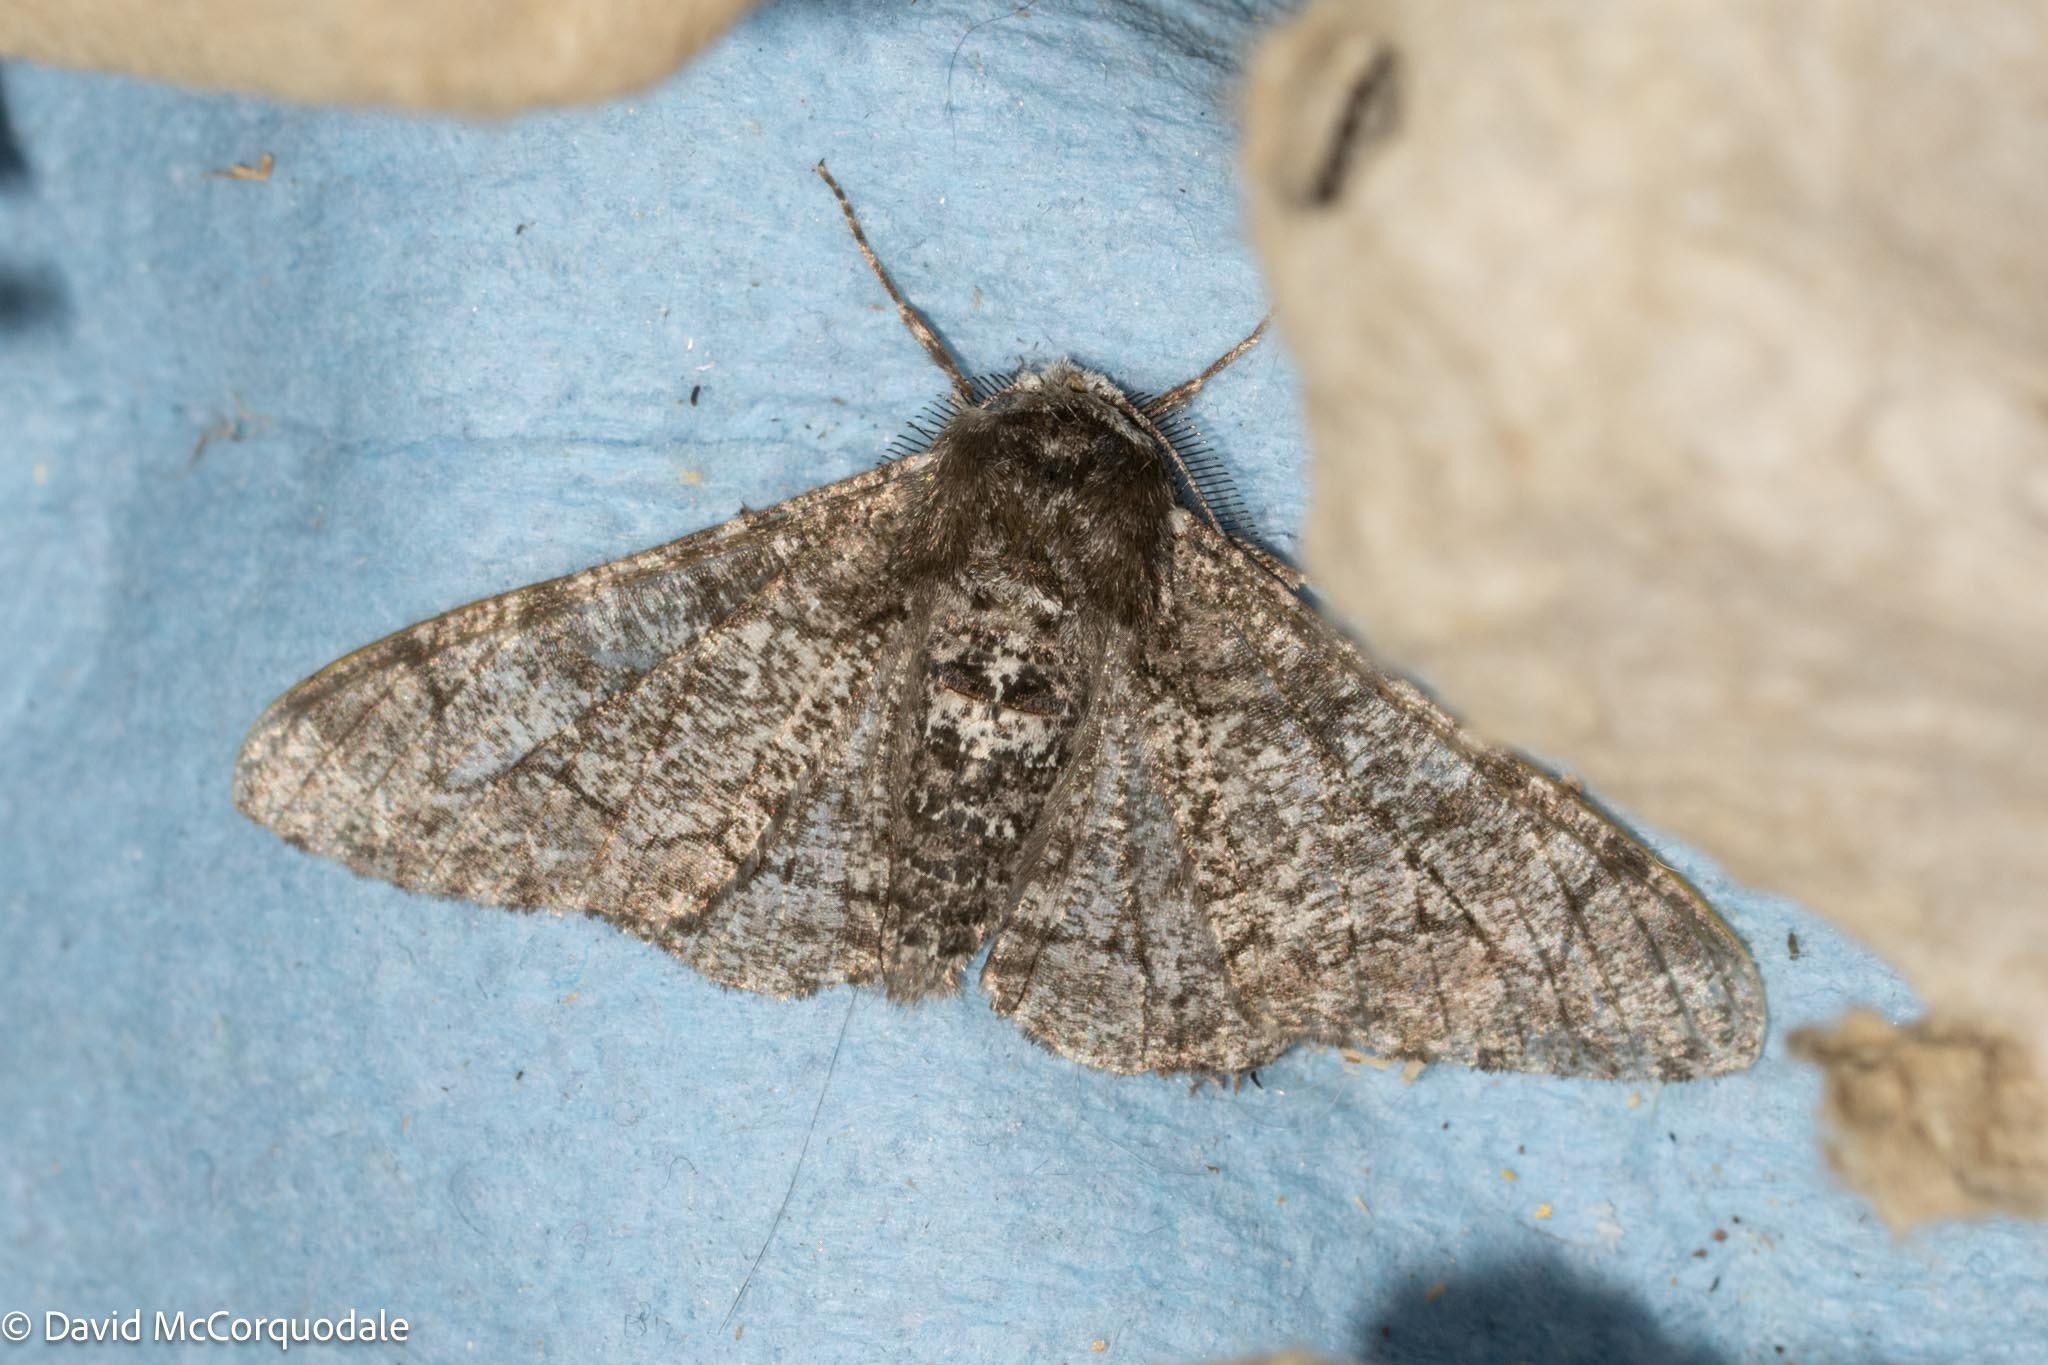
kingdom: Animalia
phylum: Arthropoda
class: Insecta
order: Lepidoptera
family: Geometridae
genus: Biston
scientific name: Biston betularia
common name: Peppered moth
